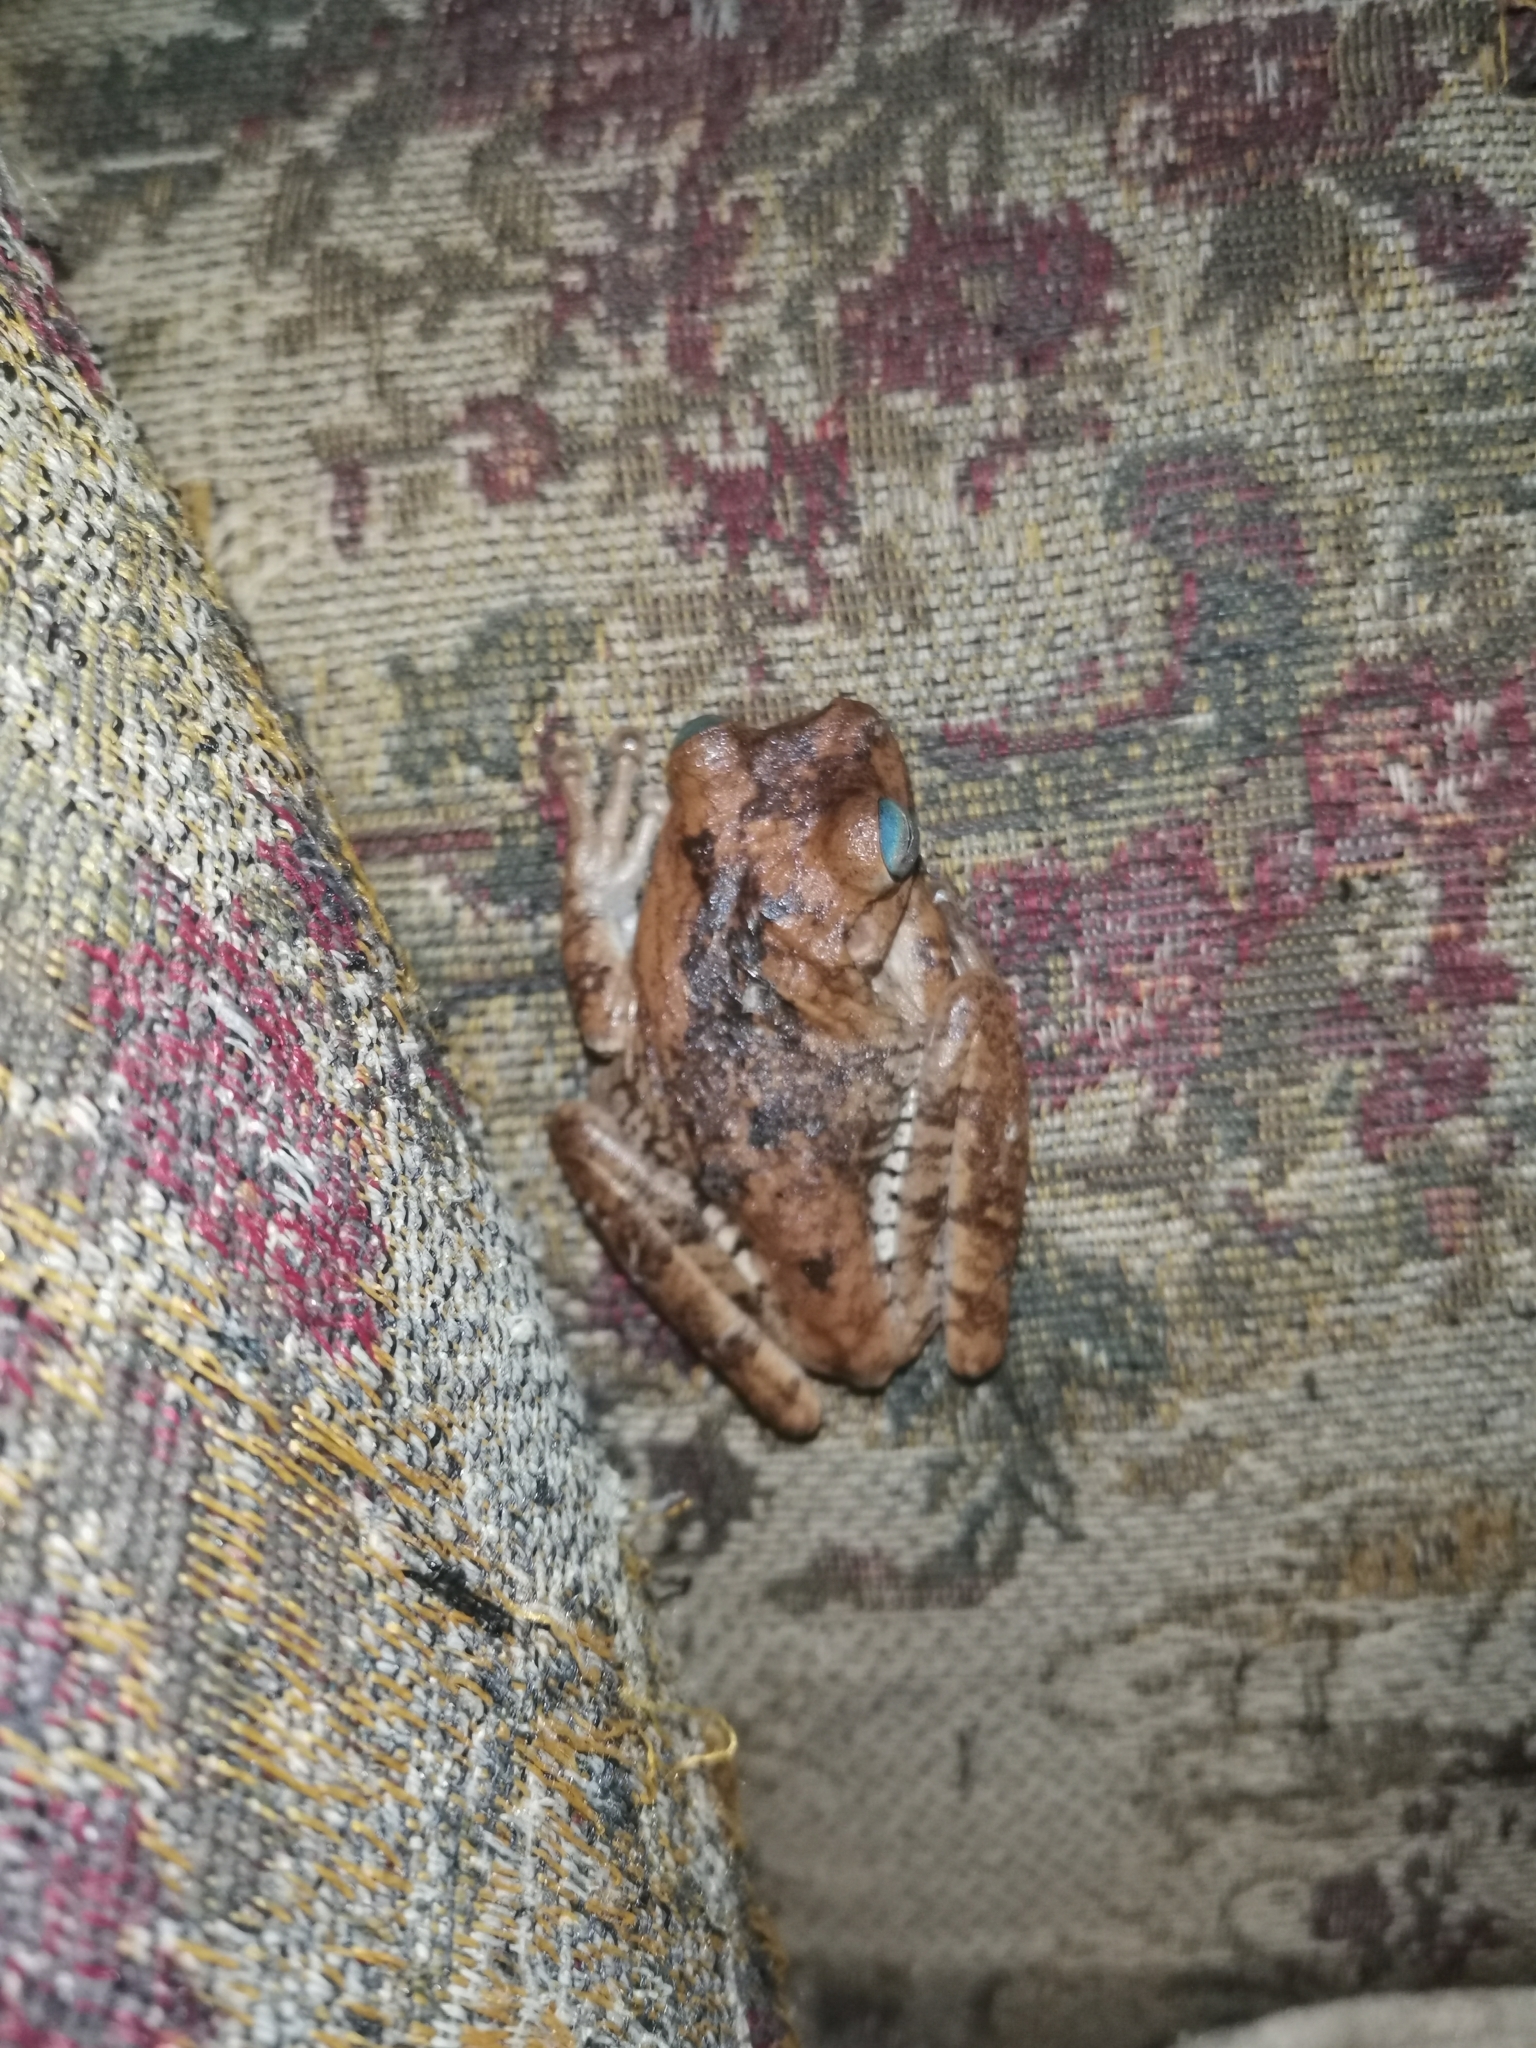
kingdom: Animalia
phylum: Chordata
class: Amphibia
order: Anura
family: Hylidae
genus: Boana
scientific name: Boana pugnax
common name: Chirique-flusse treefrog
